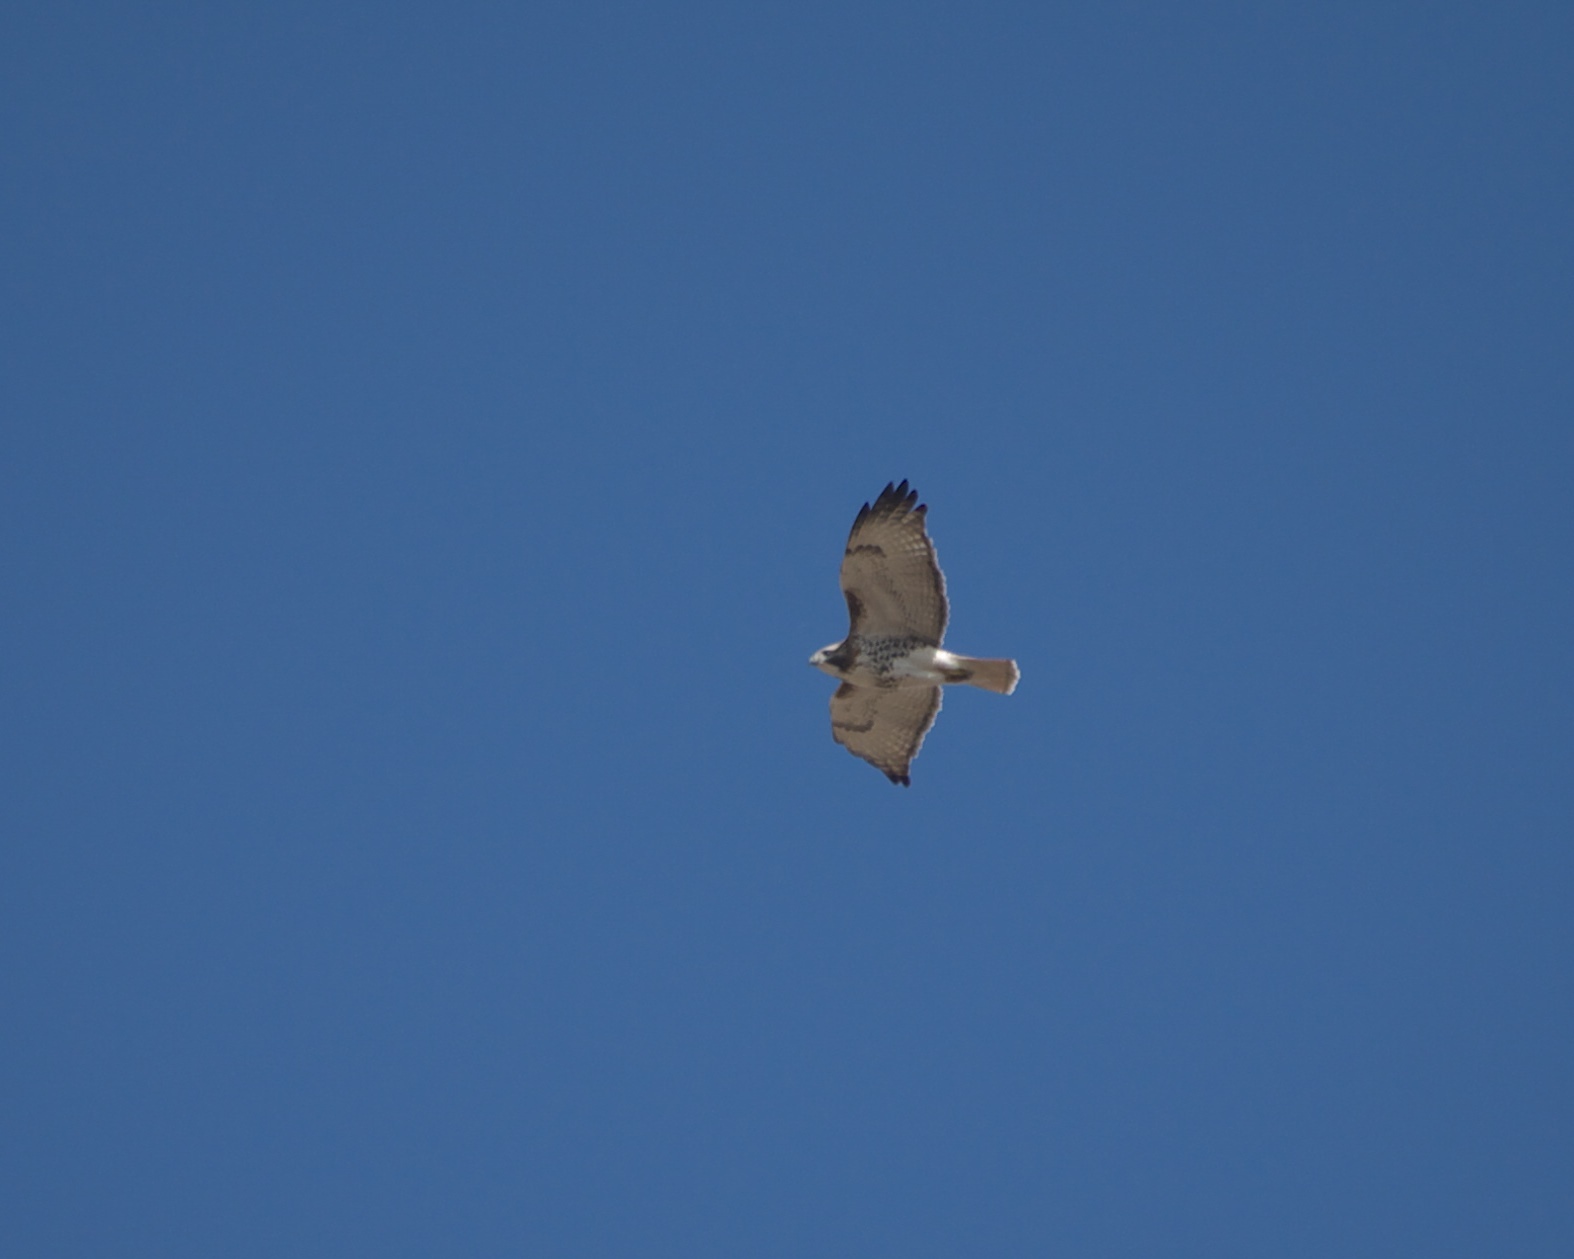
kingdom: Animalia
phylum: Chordata
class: Aves
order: Accipitriformes
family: Accipitridae
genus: Buteo
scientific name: Buteo jamaicensis
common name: Red-tailed hawk
